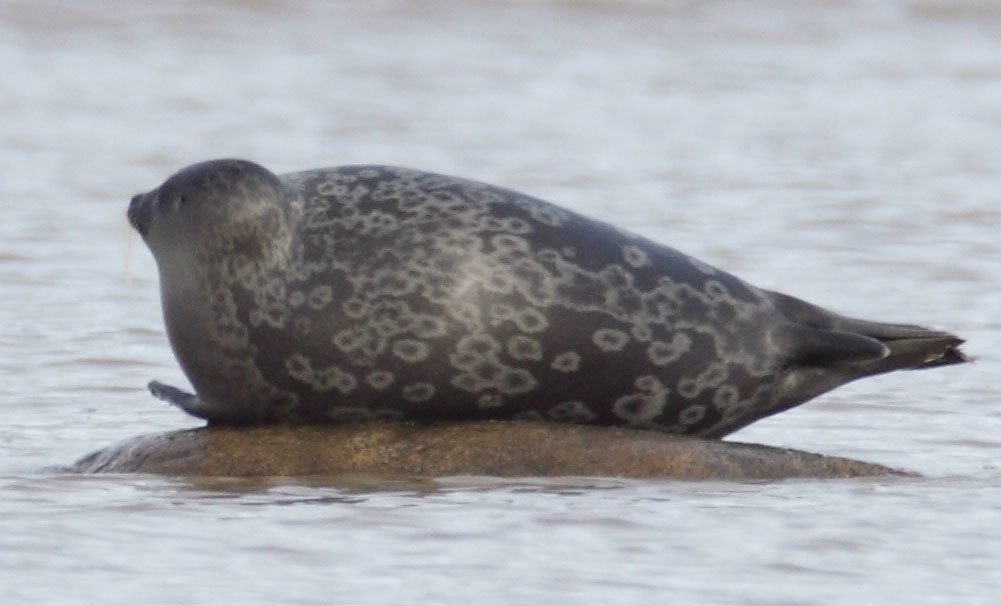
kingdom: Animalia
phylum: Chordata
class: Mammalia
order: Carnivora
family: Phocidae
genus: Pusa
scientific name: Pusa hispida
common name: Ringed seal
